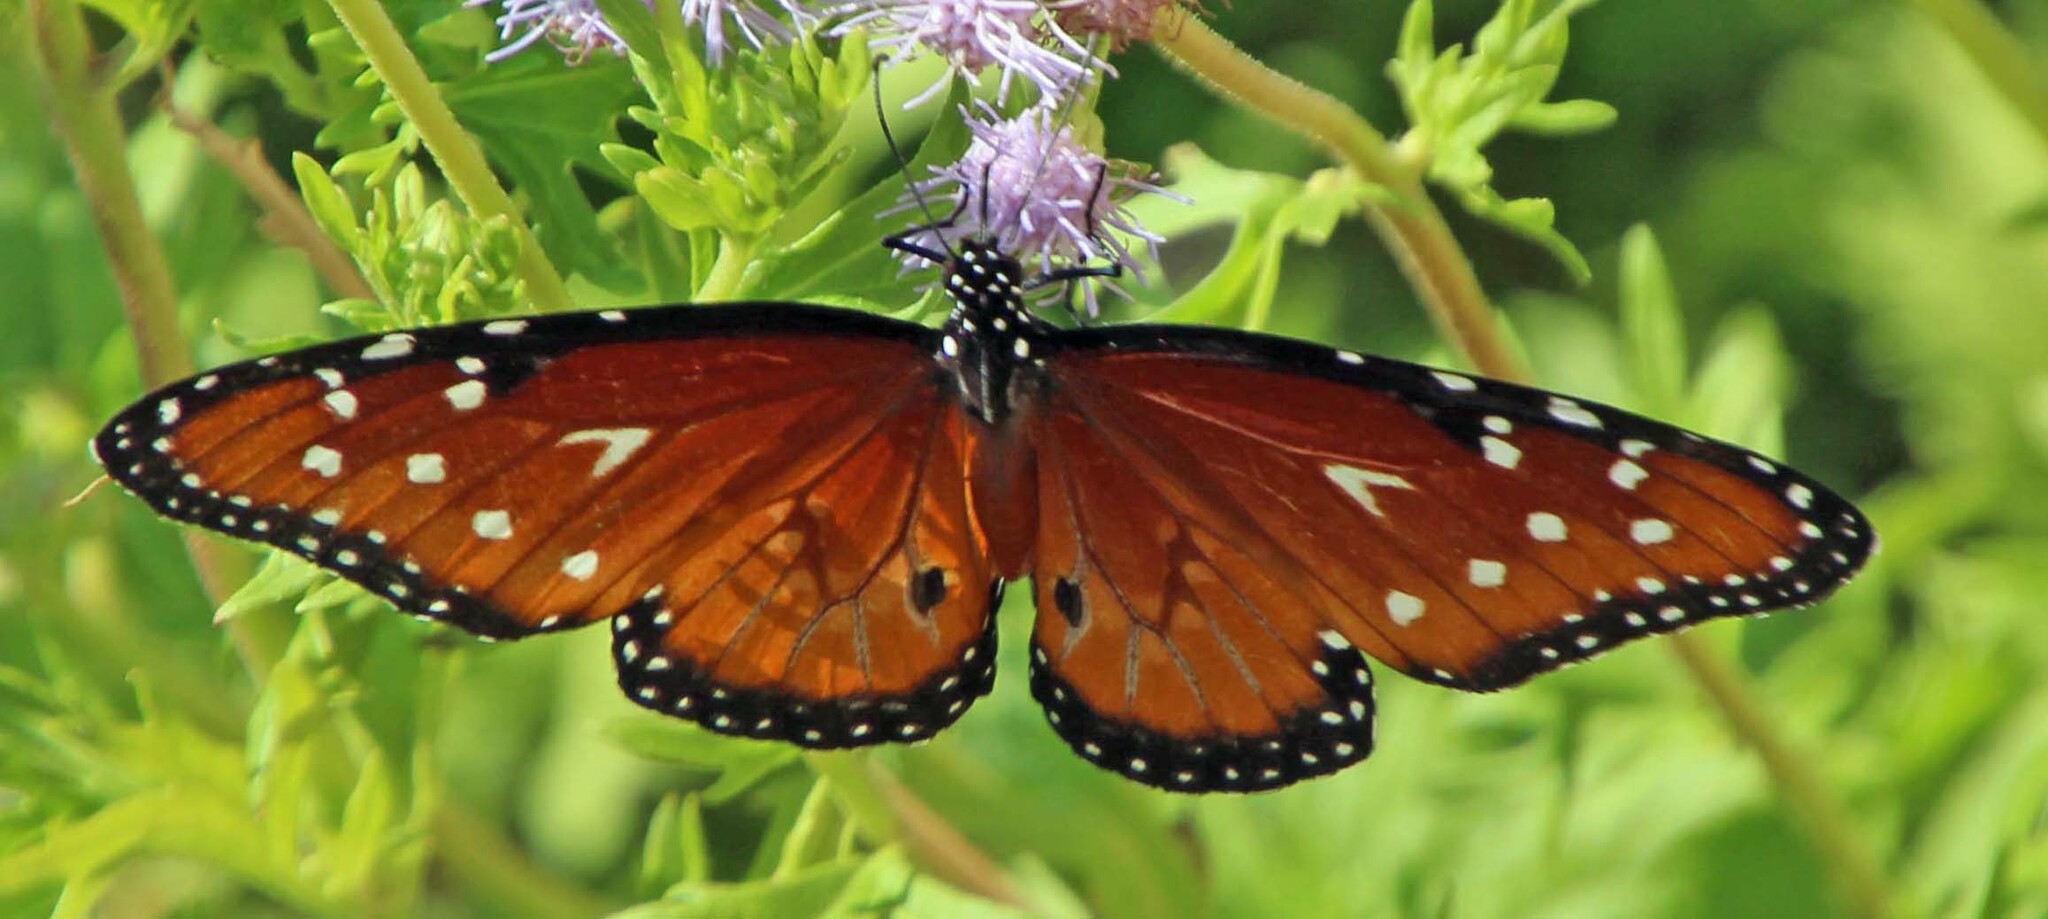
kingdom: Animalia
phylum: Arthropoda
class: Insecta
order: Lepidoptera
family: Nymphalidae
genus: Danaus
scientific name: Danaus gilippus
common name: Queen
